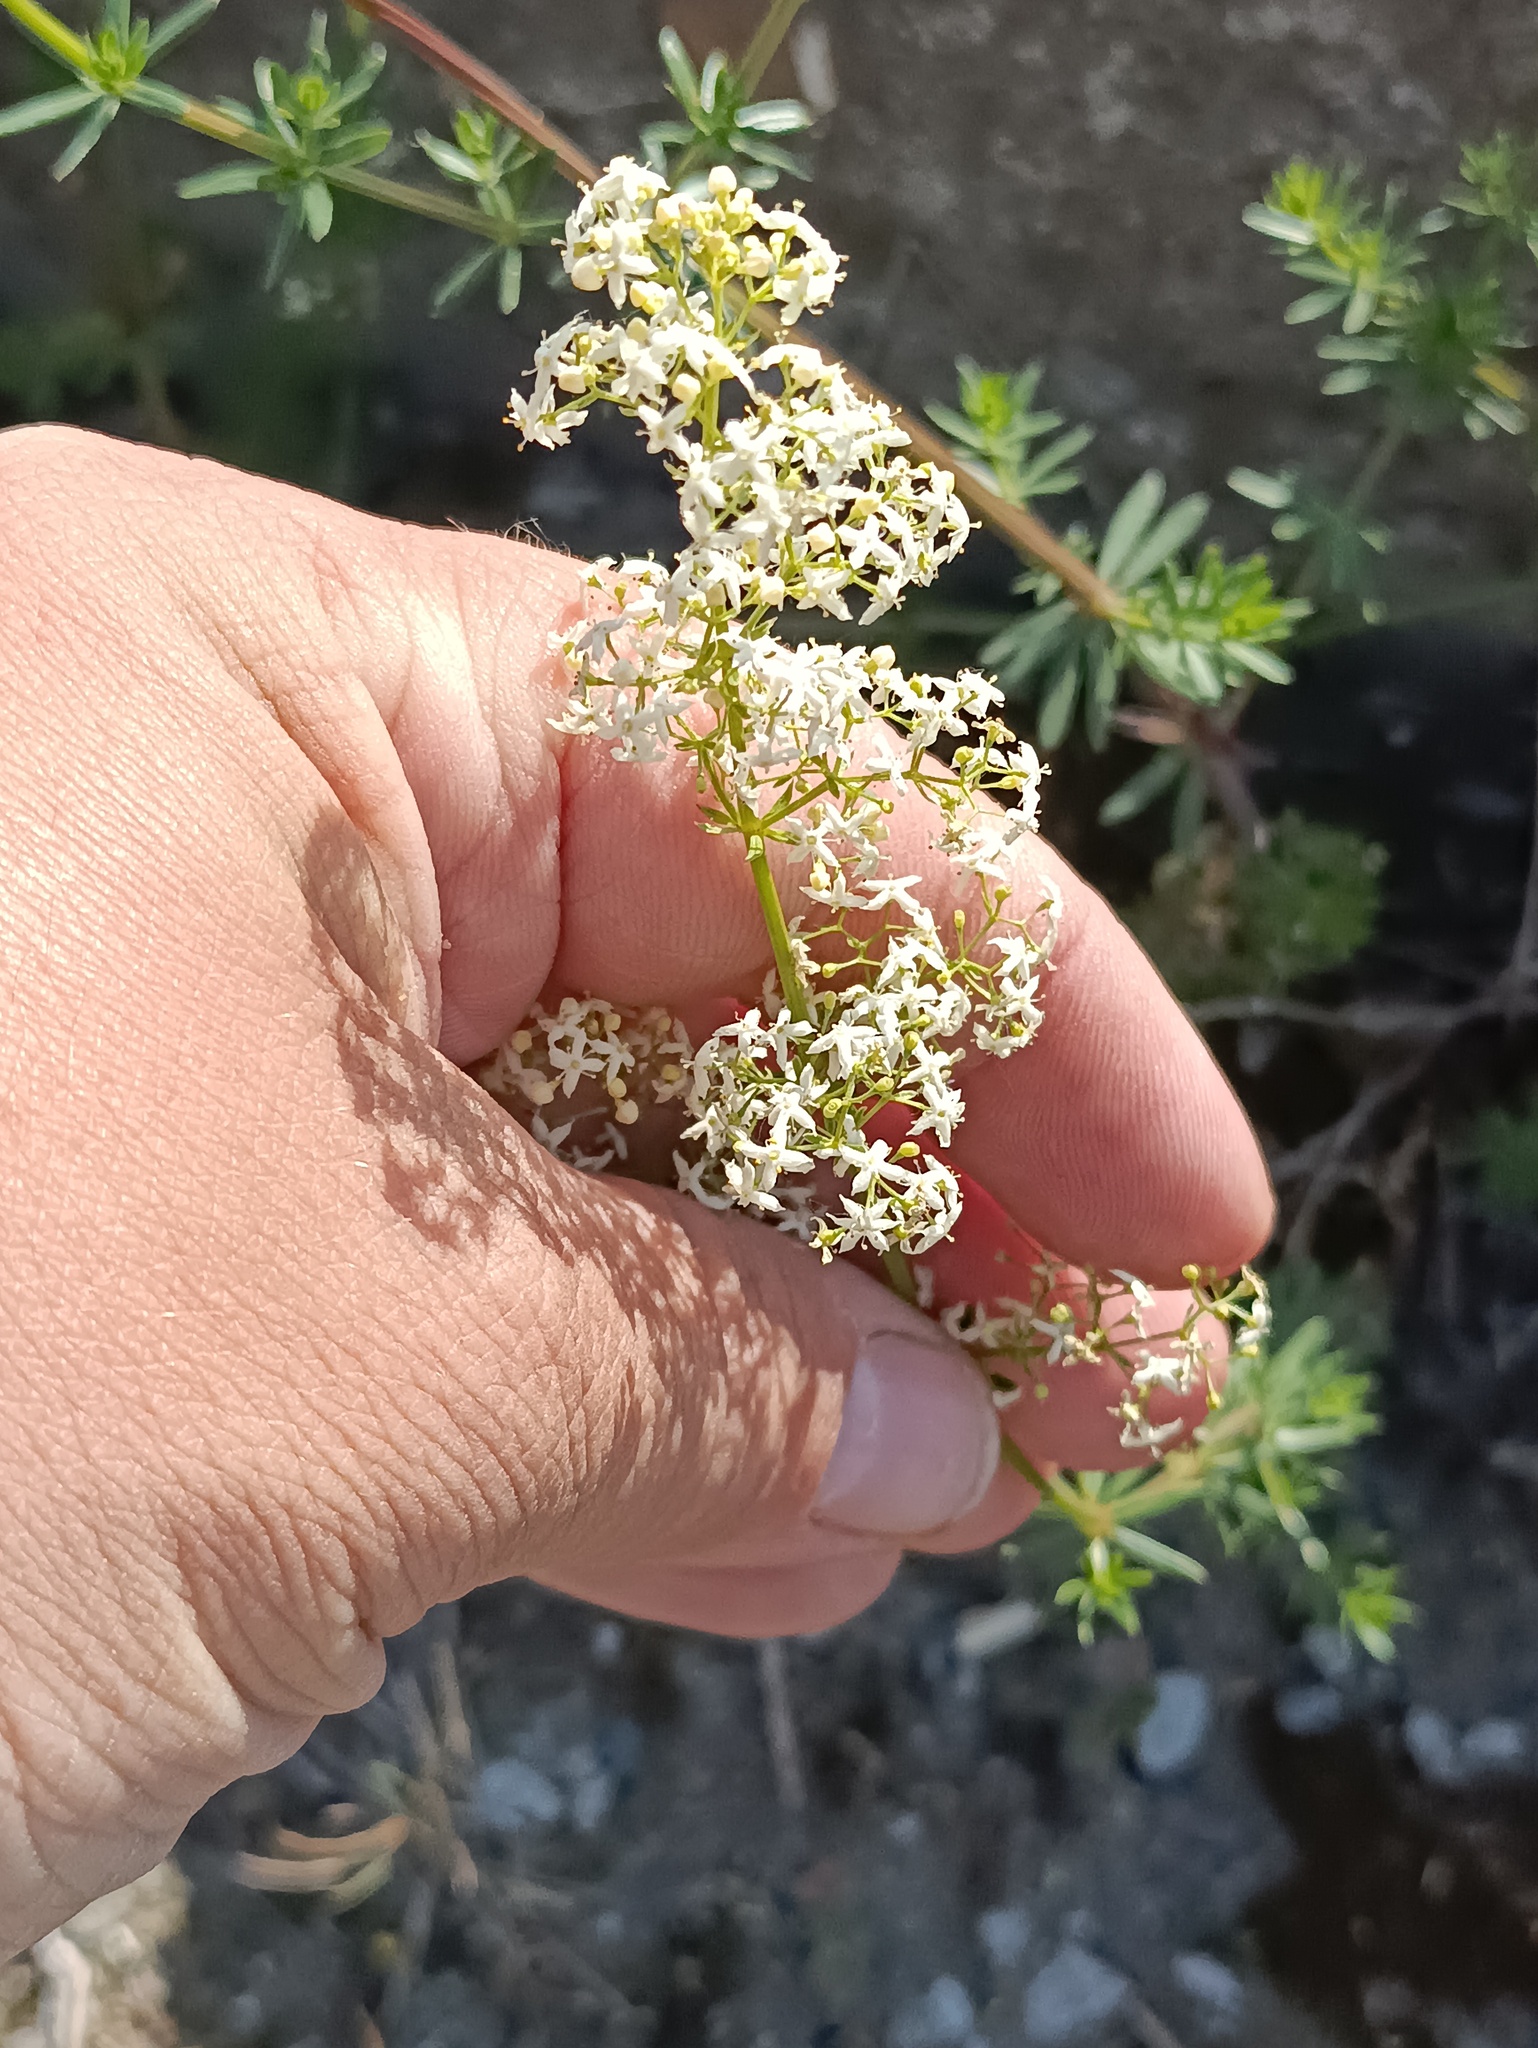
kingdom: Plantae
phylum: Tracheophyta
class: Magnoliopsida
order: Gentianales
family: Rubiaceae
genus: Galium
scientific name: Galium mollugo
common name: Hedge bedstraw
